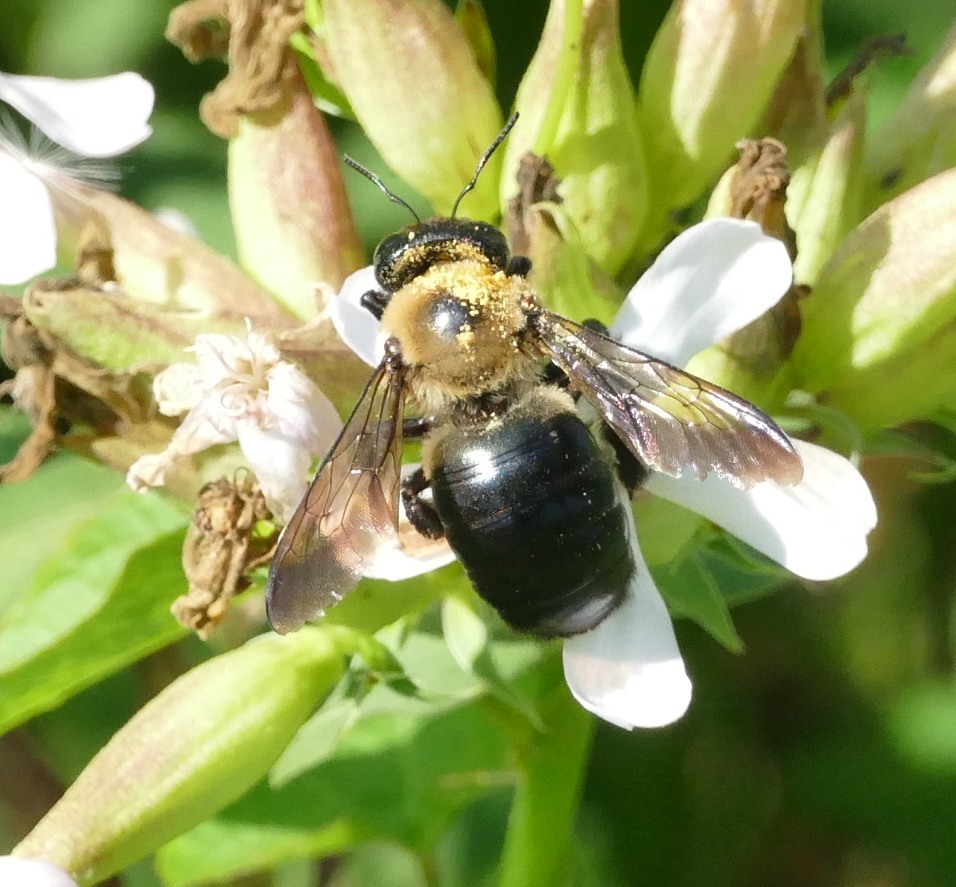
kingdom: Animalia
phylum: Arthropoda
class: Insecta
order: Hymenoptera
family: Apidae
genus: Xylocopa
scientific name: Xylocopa virginica
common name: Carpenter bee
